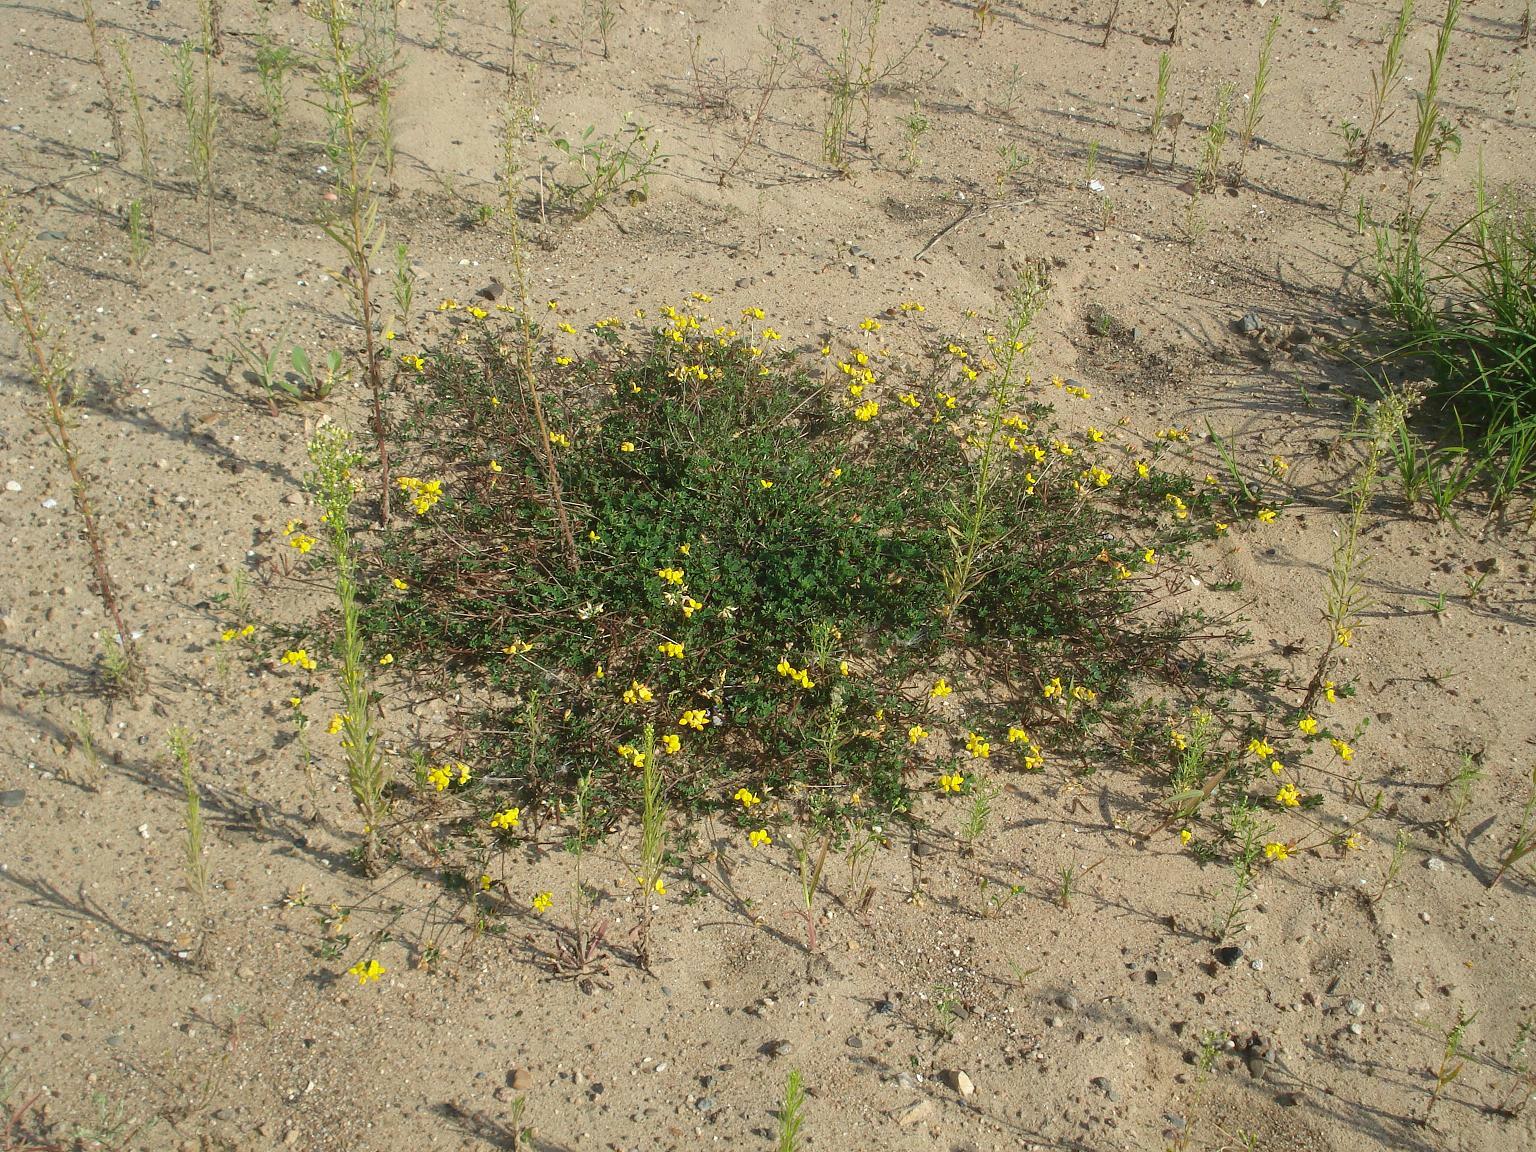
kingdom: Plantae
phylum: Tracheophyta
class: Magnoliopsida
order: Fabales
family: Fabaceae
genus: Lotus
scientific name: Lotus corniculatus
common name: Common bird's-foot-trefoil
